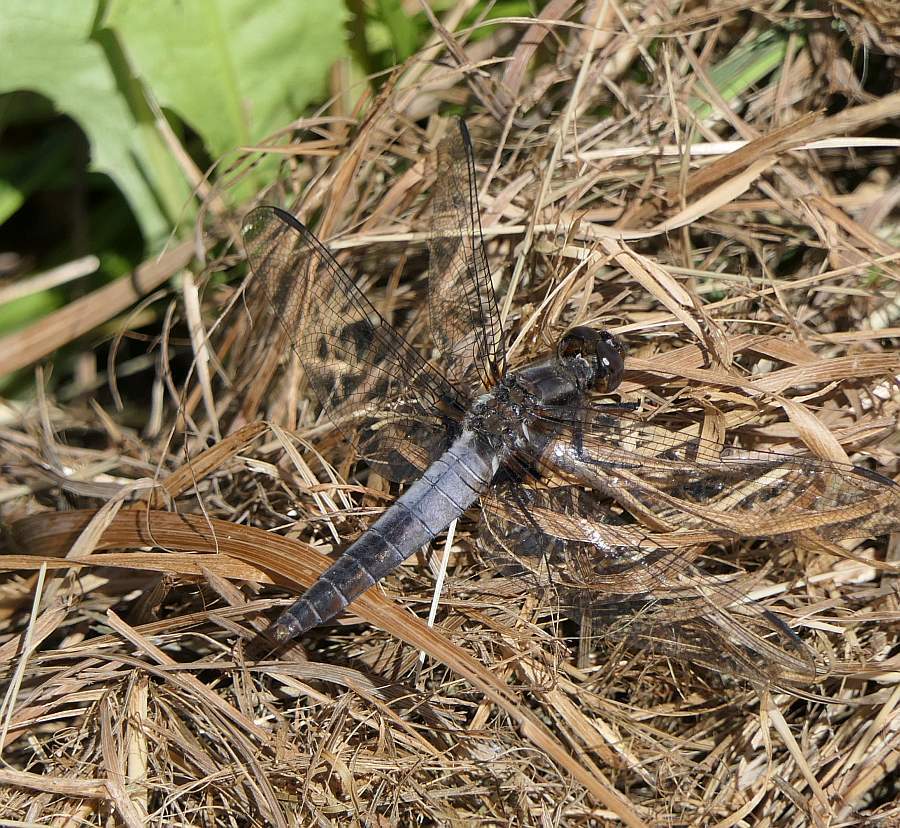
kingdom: Animalia
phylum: Arthropoda
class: Insecta
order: Odonata
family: Libellulidae
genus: Ladona
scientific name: Ladona julia
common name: Chalk-fronted corporal
